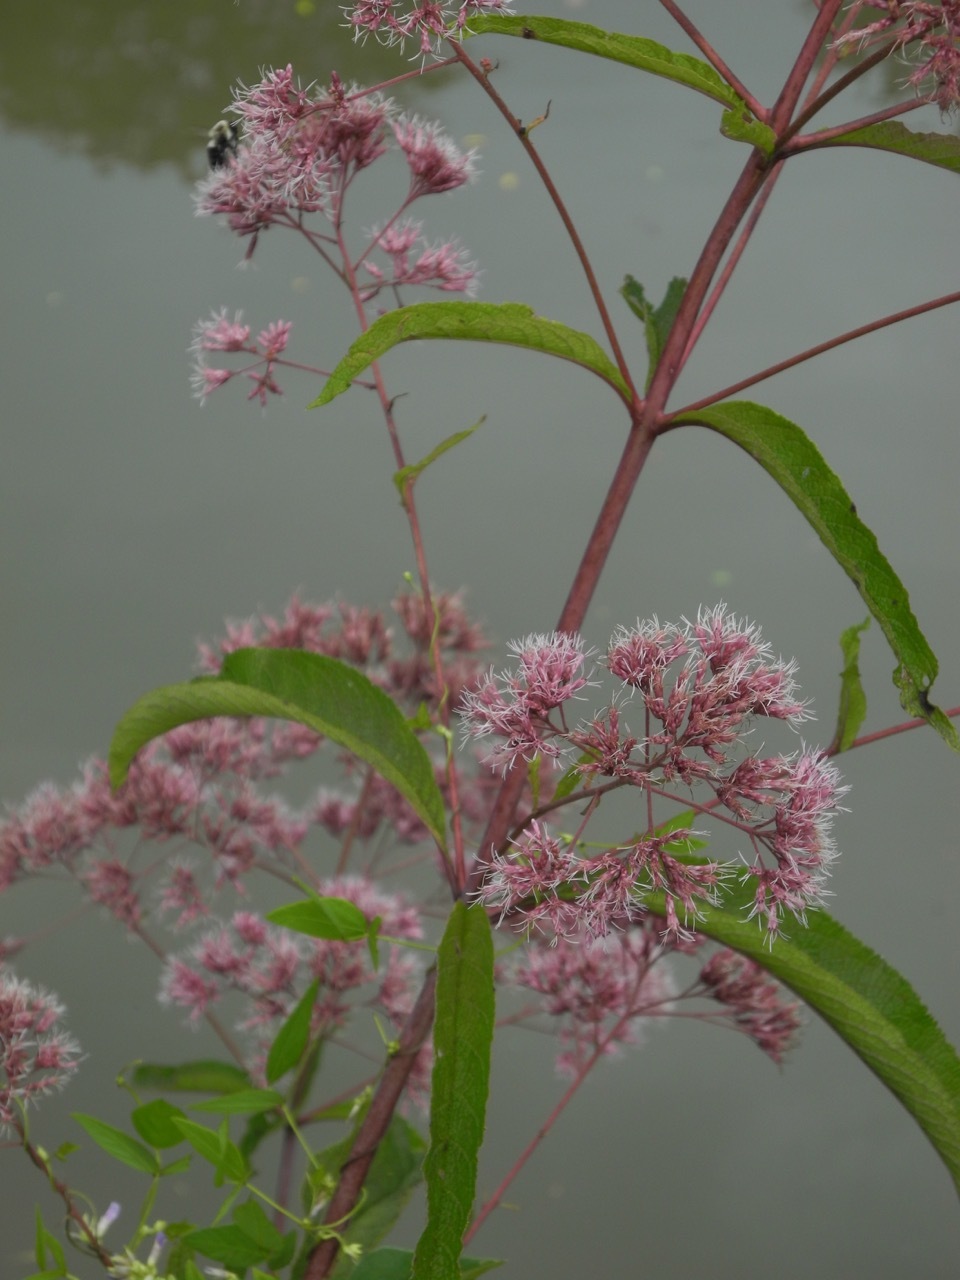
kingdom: Plantae
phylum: Tracheophyta
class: Magnoliopsida
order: Asterales
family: Asteraceae
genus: Eutrochium
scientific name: Eutrochium fistulosum
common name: Trumpetweed
